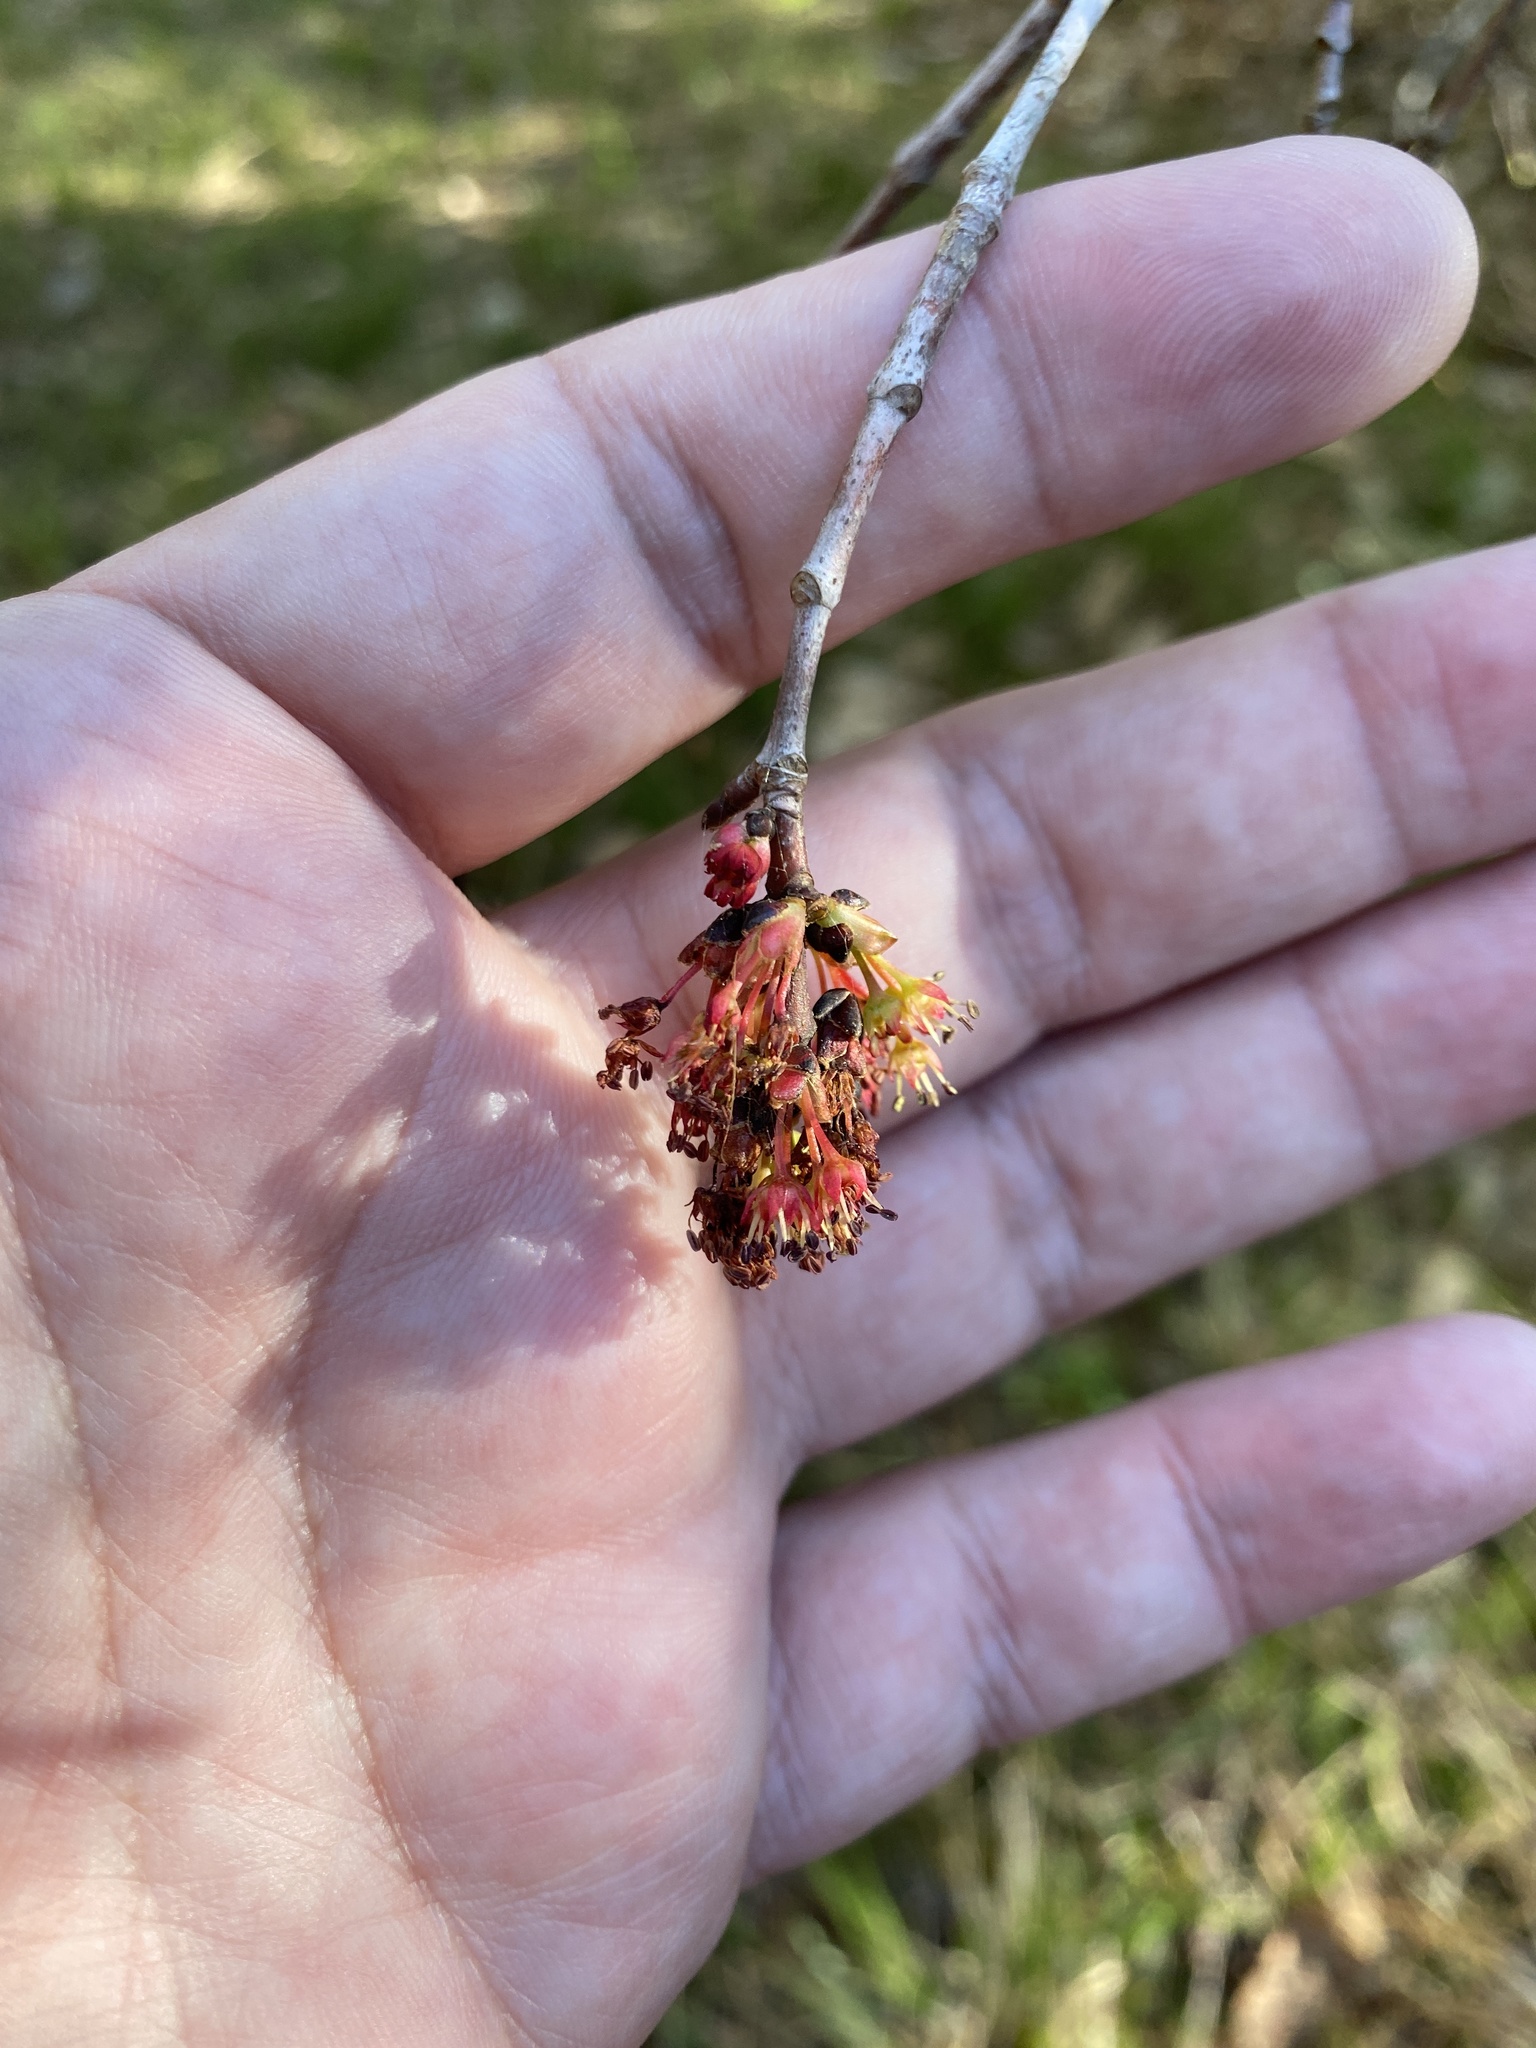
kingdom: Plantae
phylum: Tracheophyta
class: Magnoliopsida
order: Sapindales
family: Sapindaceae
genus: Acer
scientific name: Acer rubrum
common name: Red maple
